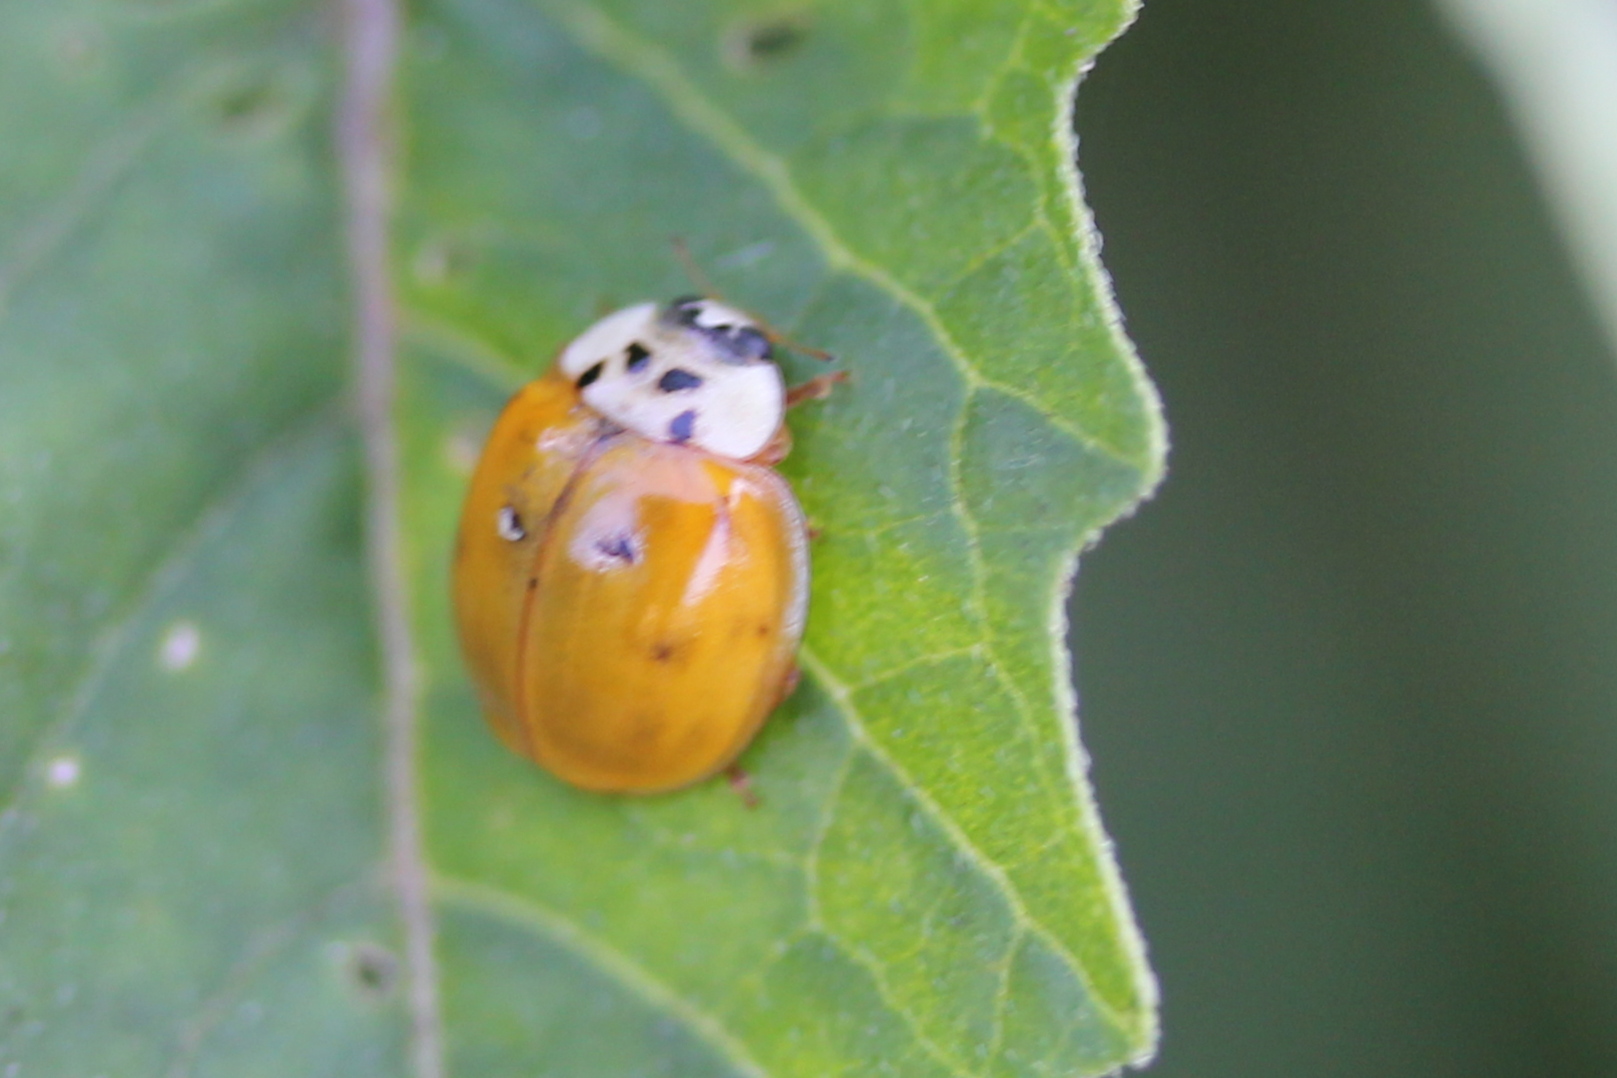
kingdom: Animalia
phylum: Arthropoda
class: Insecta
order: Coleoptera
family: Coccinellidae
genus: Harmonia
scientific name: Harmonia axyridis
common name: Harlequin ladybird
